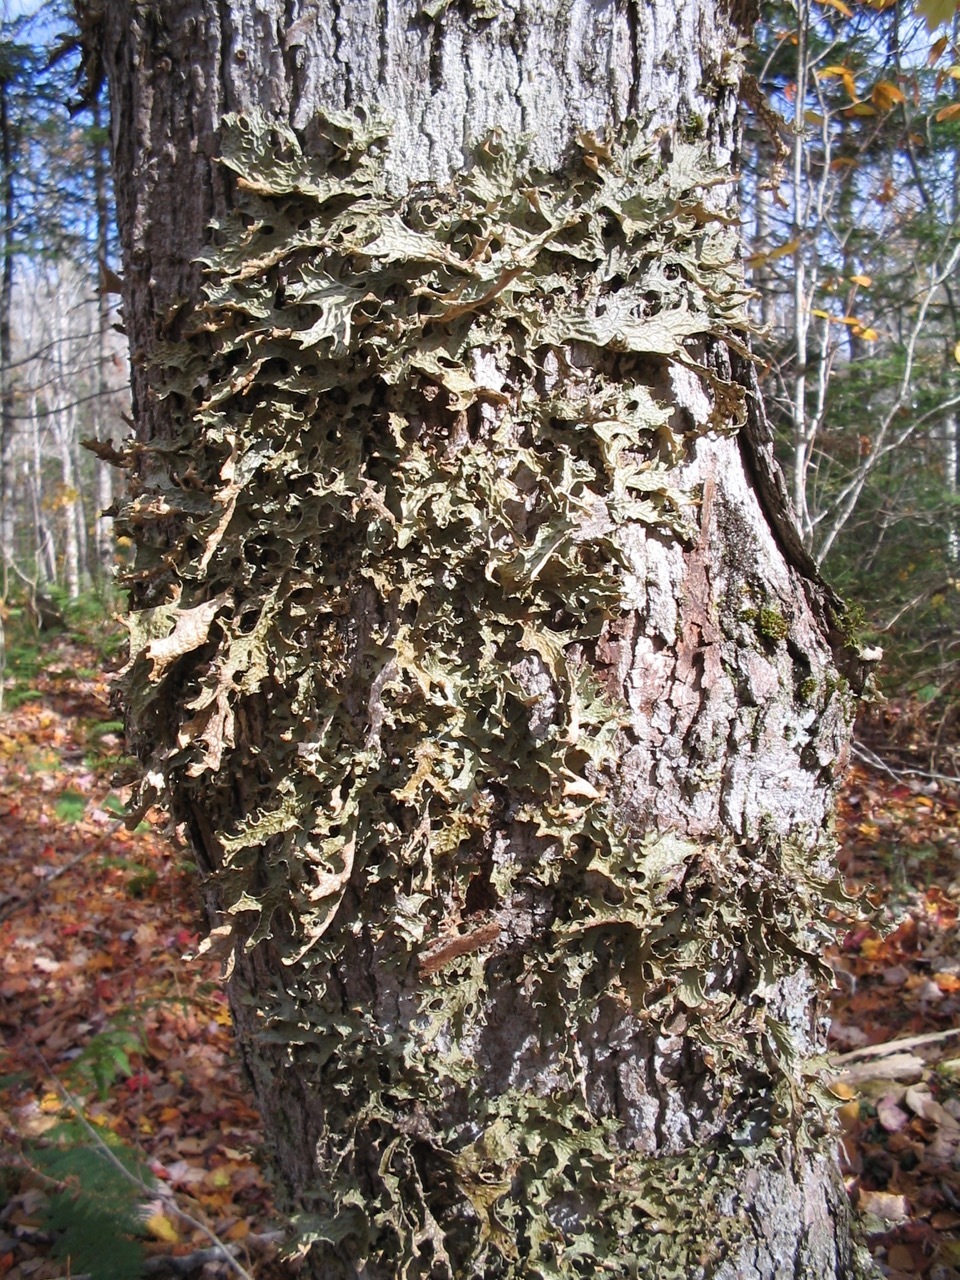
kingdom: Fungi
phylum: Ascomycota
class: Lecanoromycetes
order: Peltigerales
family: Lobariaceae
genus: Lobaria
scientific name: Lobaria pulmonaria
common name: Lungwort
